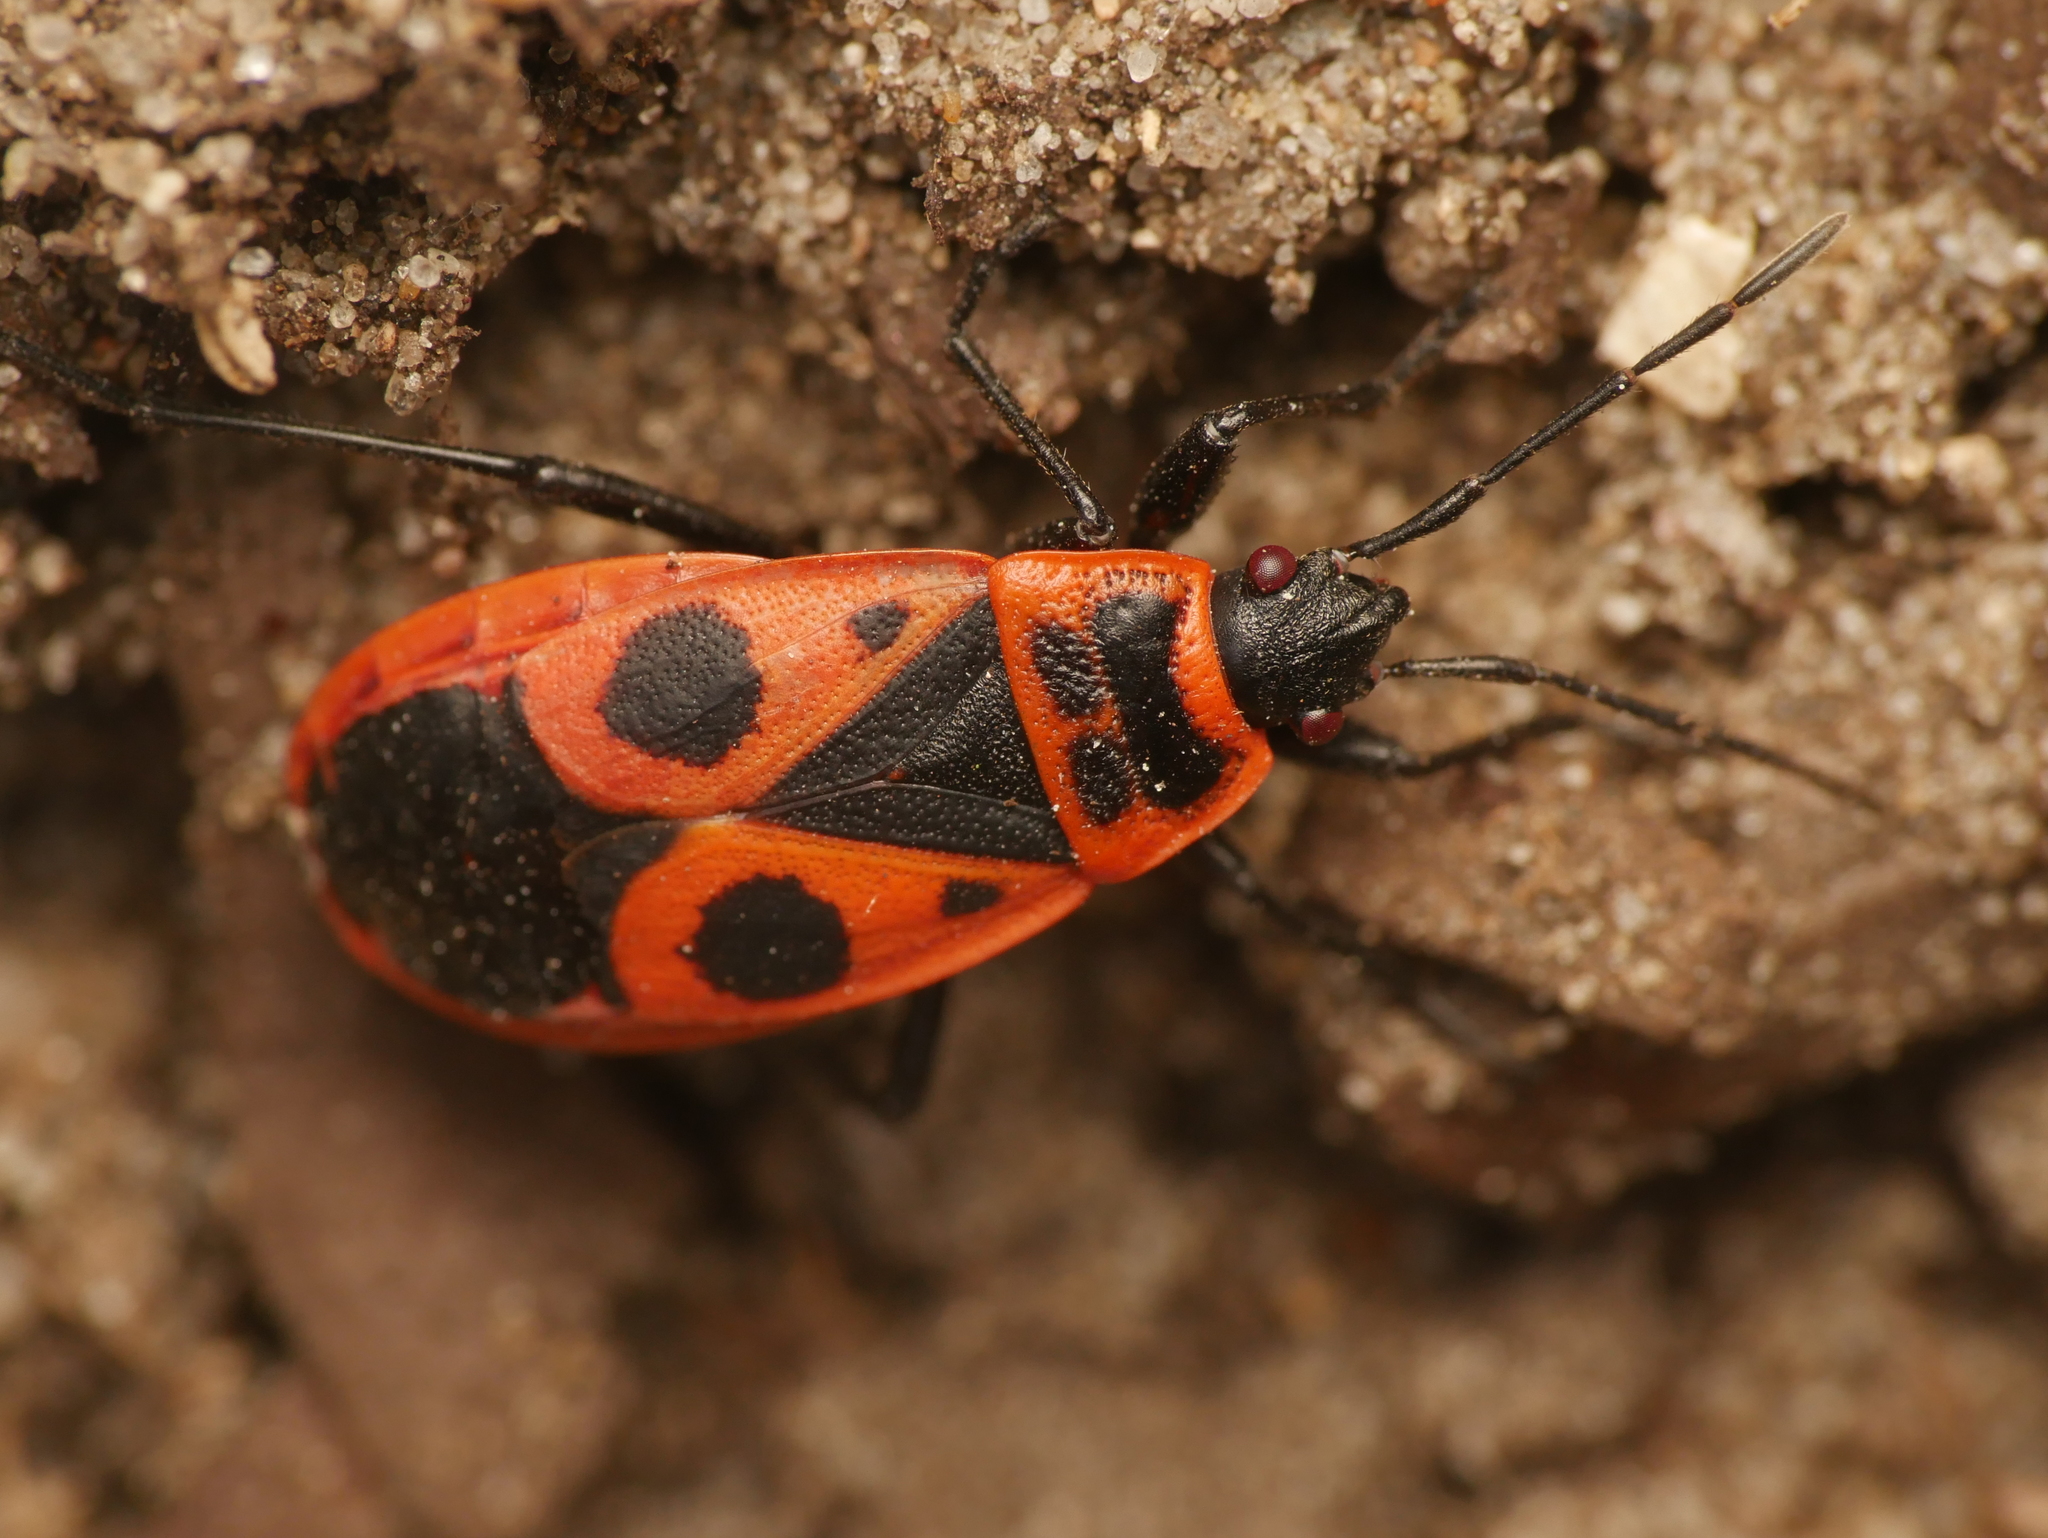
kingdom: Animalia
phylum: Arthropoda
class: Insecta
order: Hemiptera
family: Pyrrhocoridae
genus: Pyrrhocoris
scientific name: Pyrrhocoris apterus
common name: Firebug
